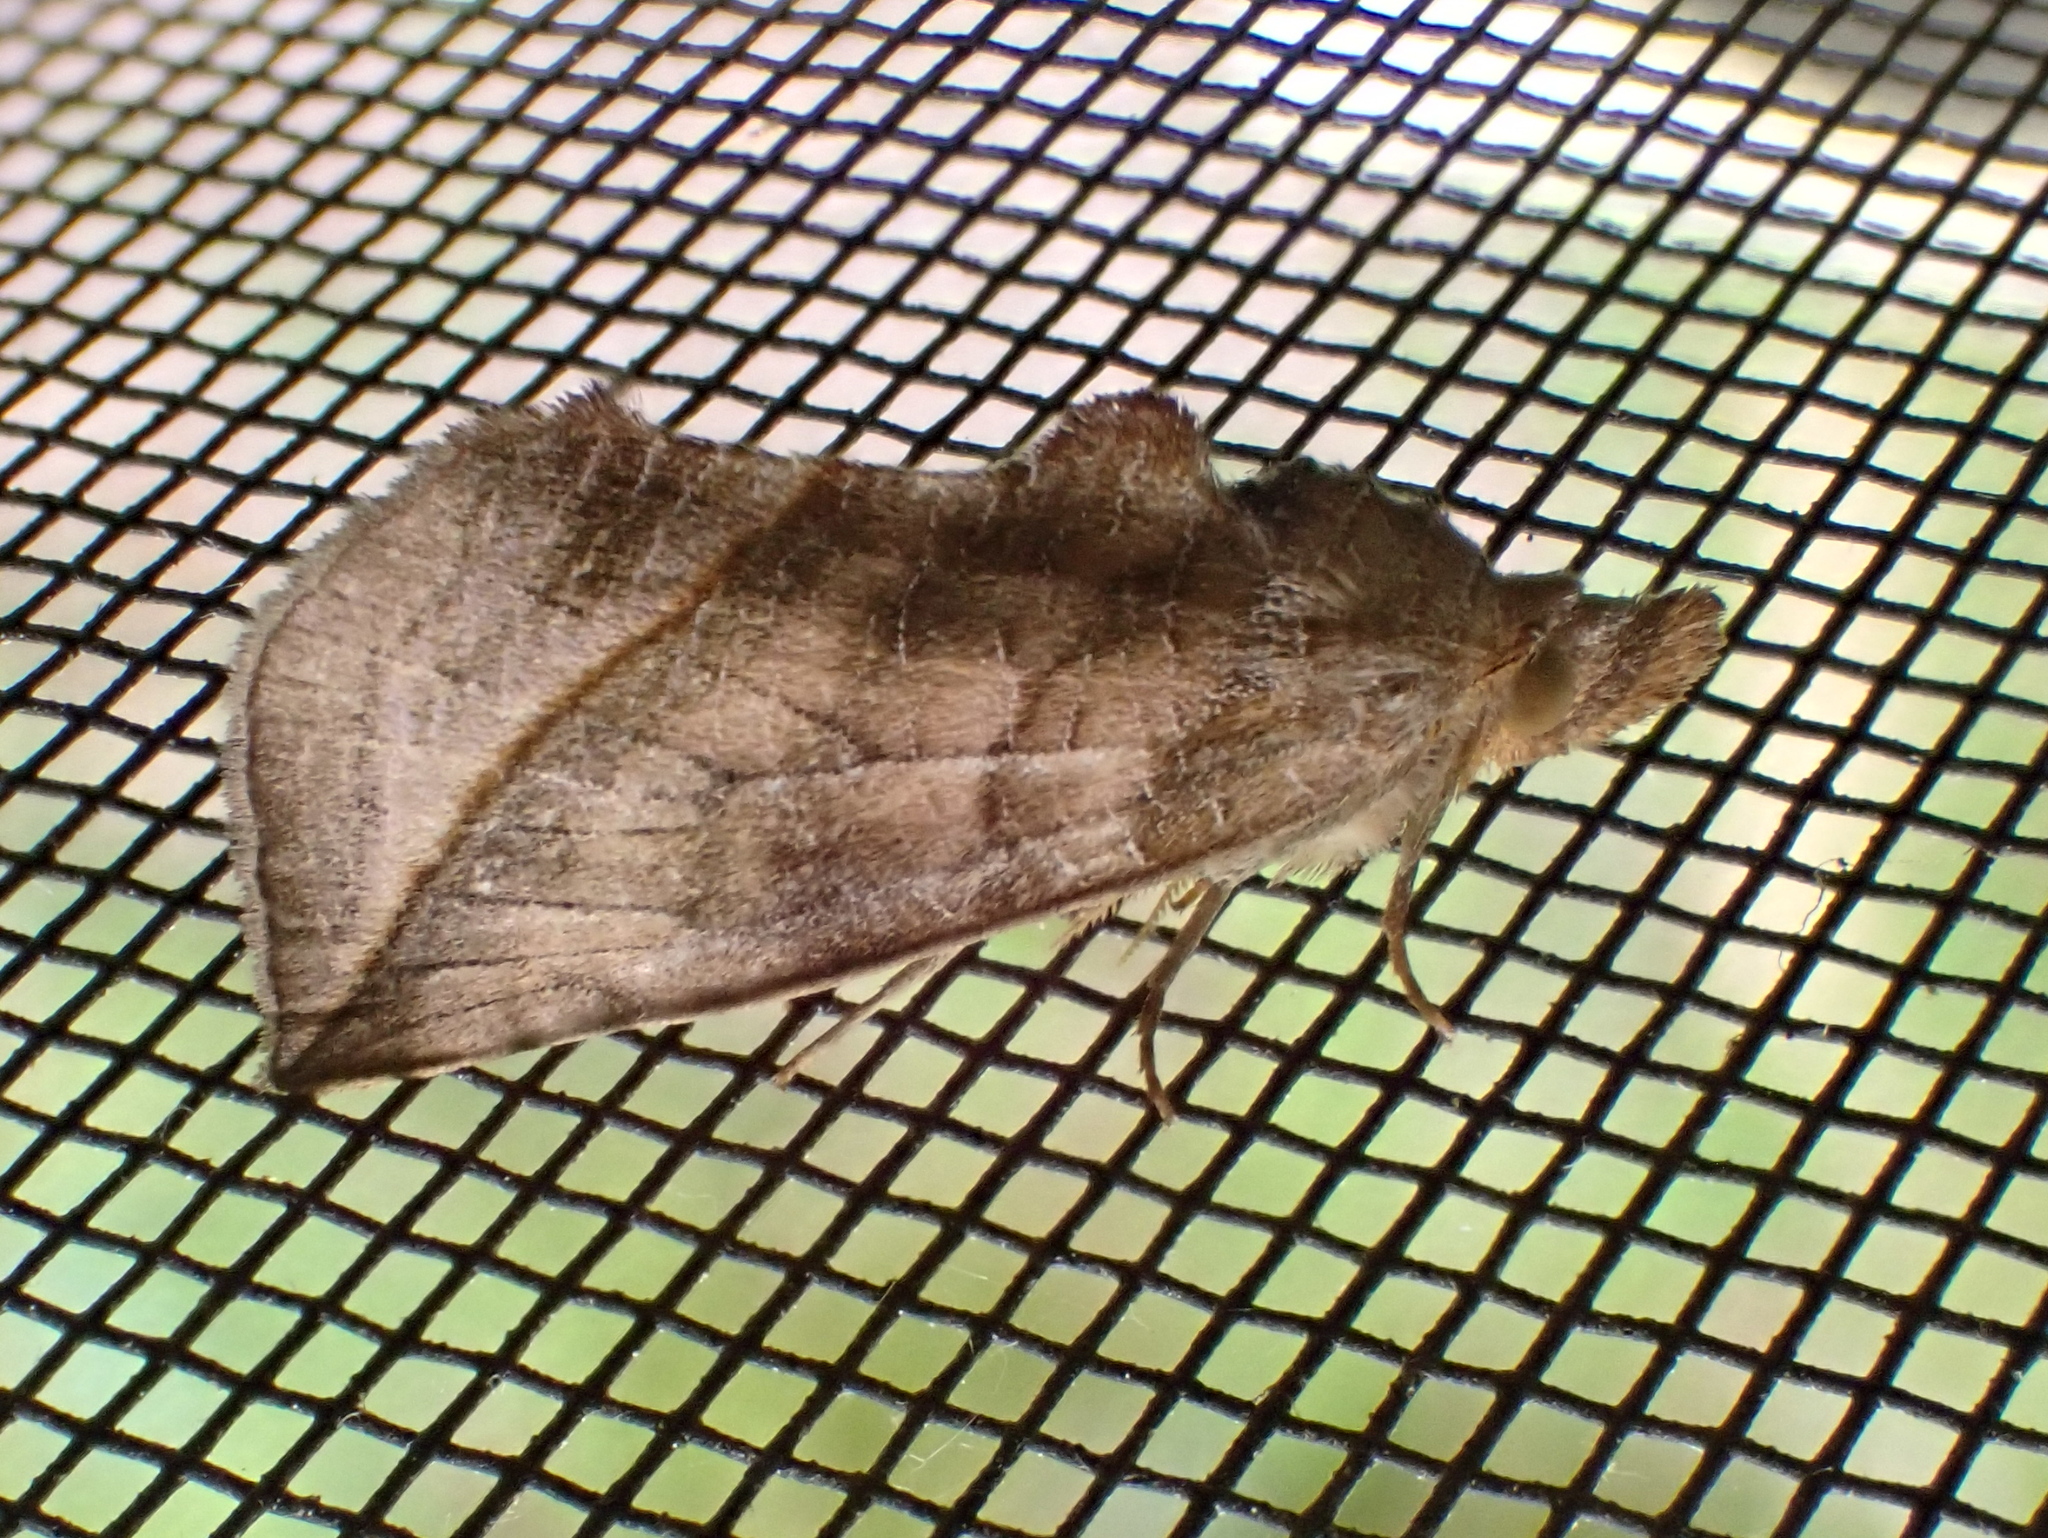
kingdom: Animalia
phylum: Arthropoda
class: Insecta
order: Lepidoptera
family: Erebidae
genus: Calyptra
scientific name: Calyptra canadensis
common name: Canadian owlet
